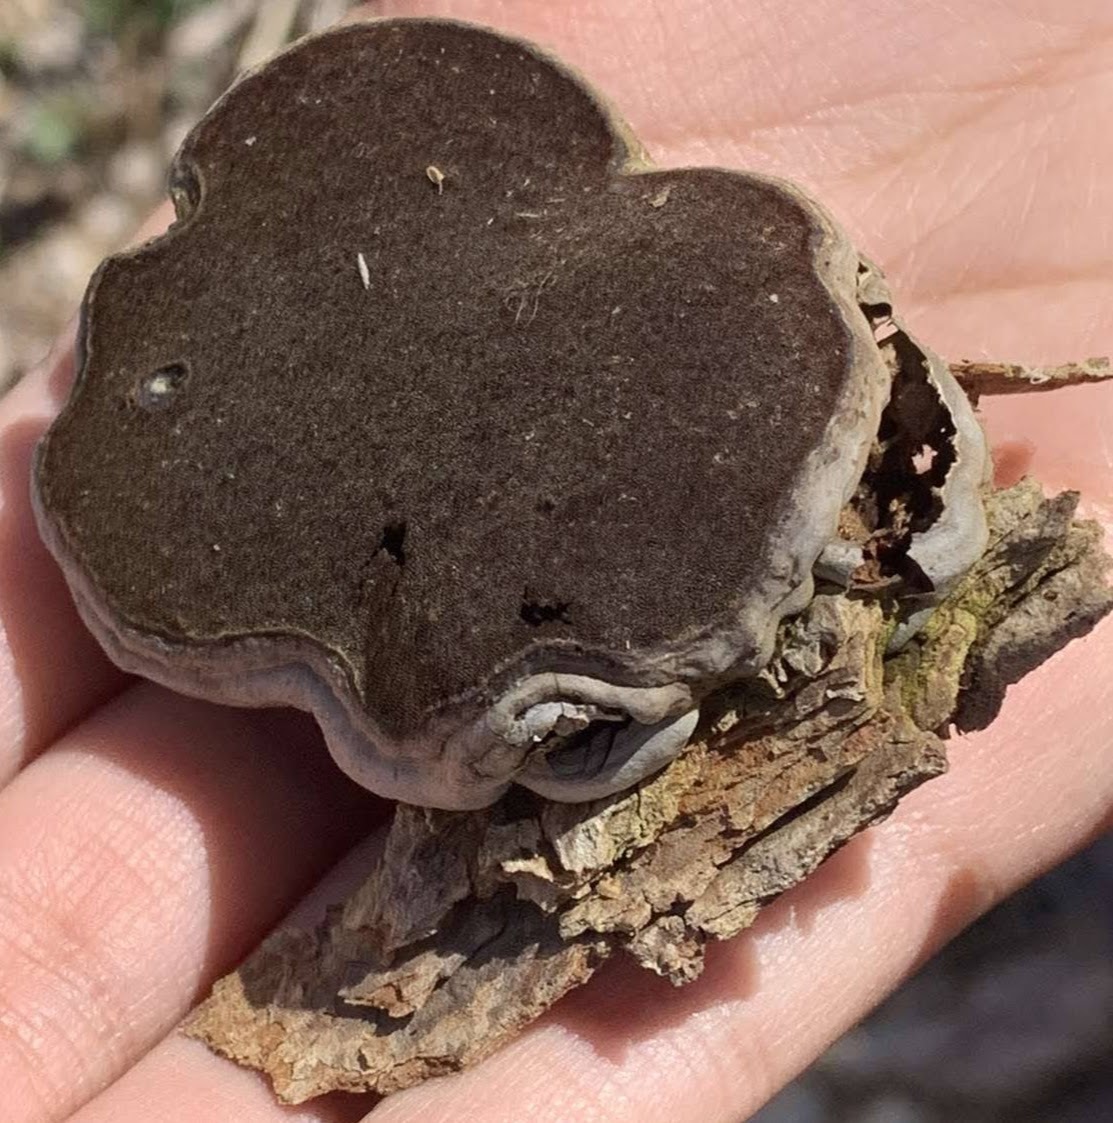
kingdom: Fungi
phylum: Basidiomycota
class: Agaricomycetes
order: Polyporales
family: Polyporaceae
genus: Fomes
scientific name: Fomes fomentarius
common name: Hoof fungus
